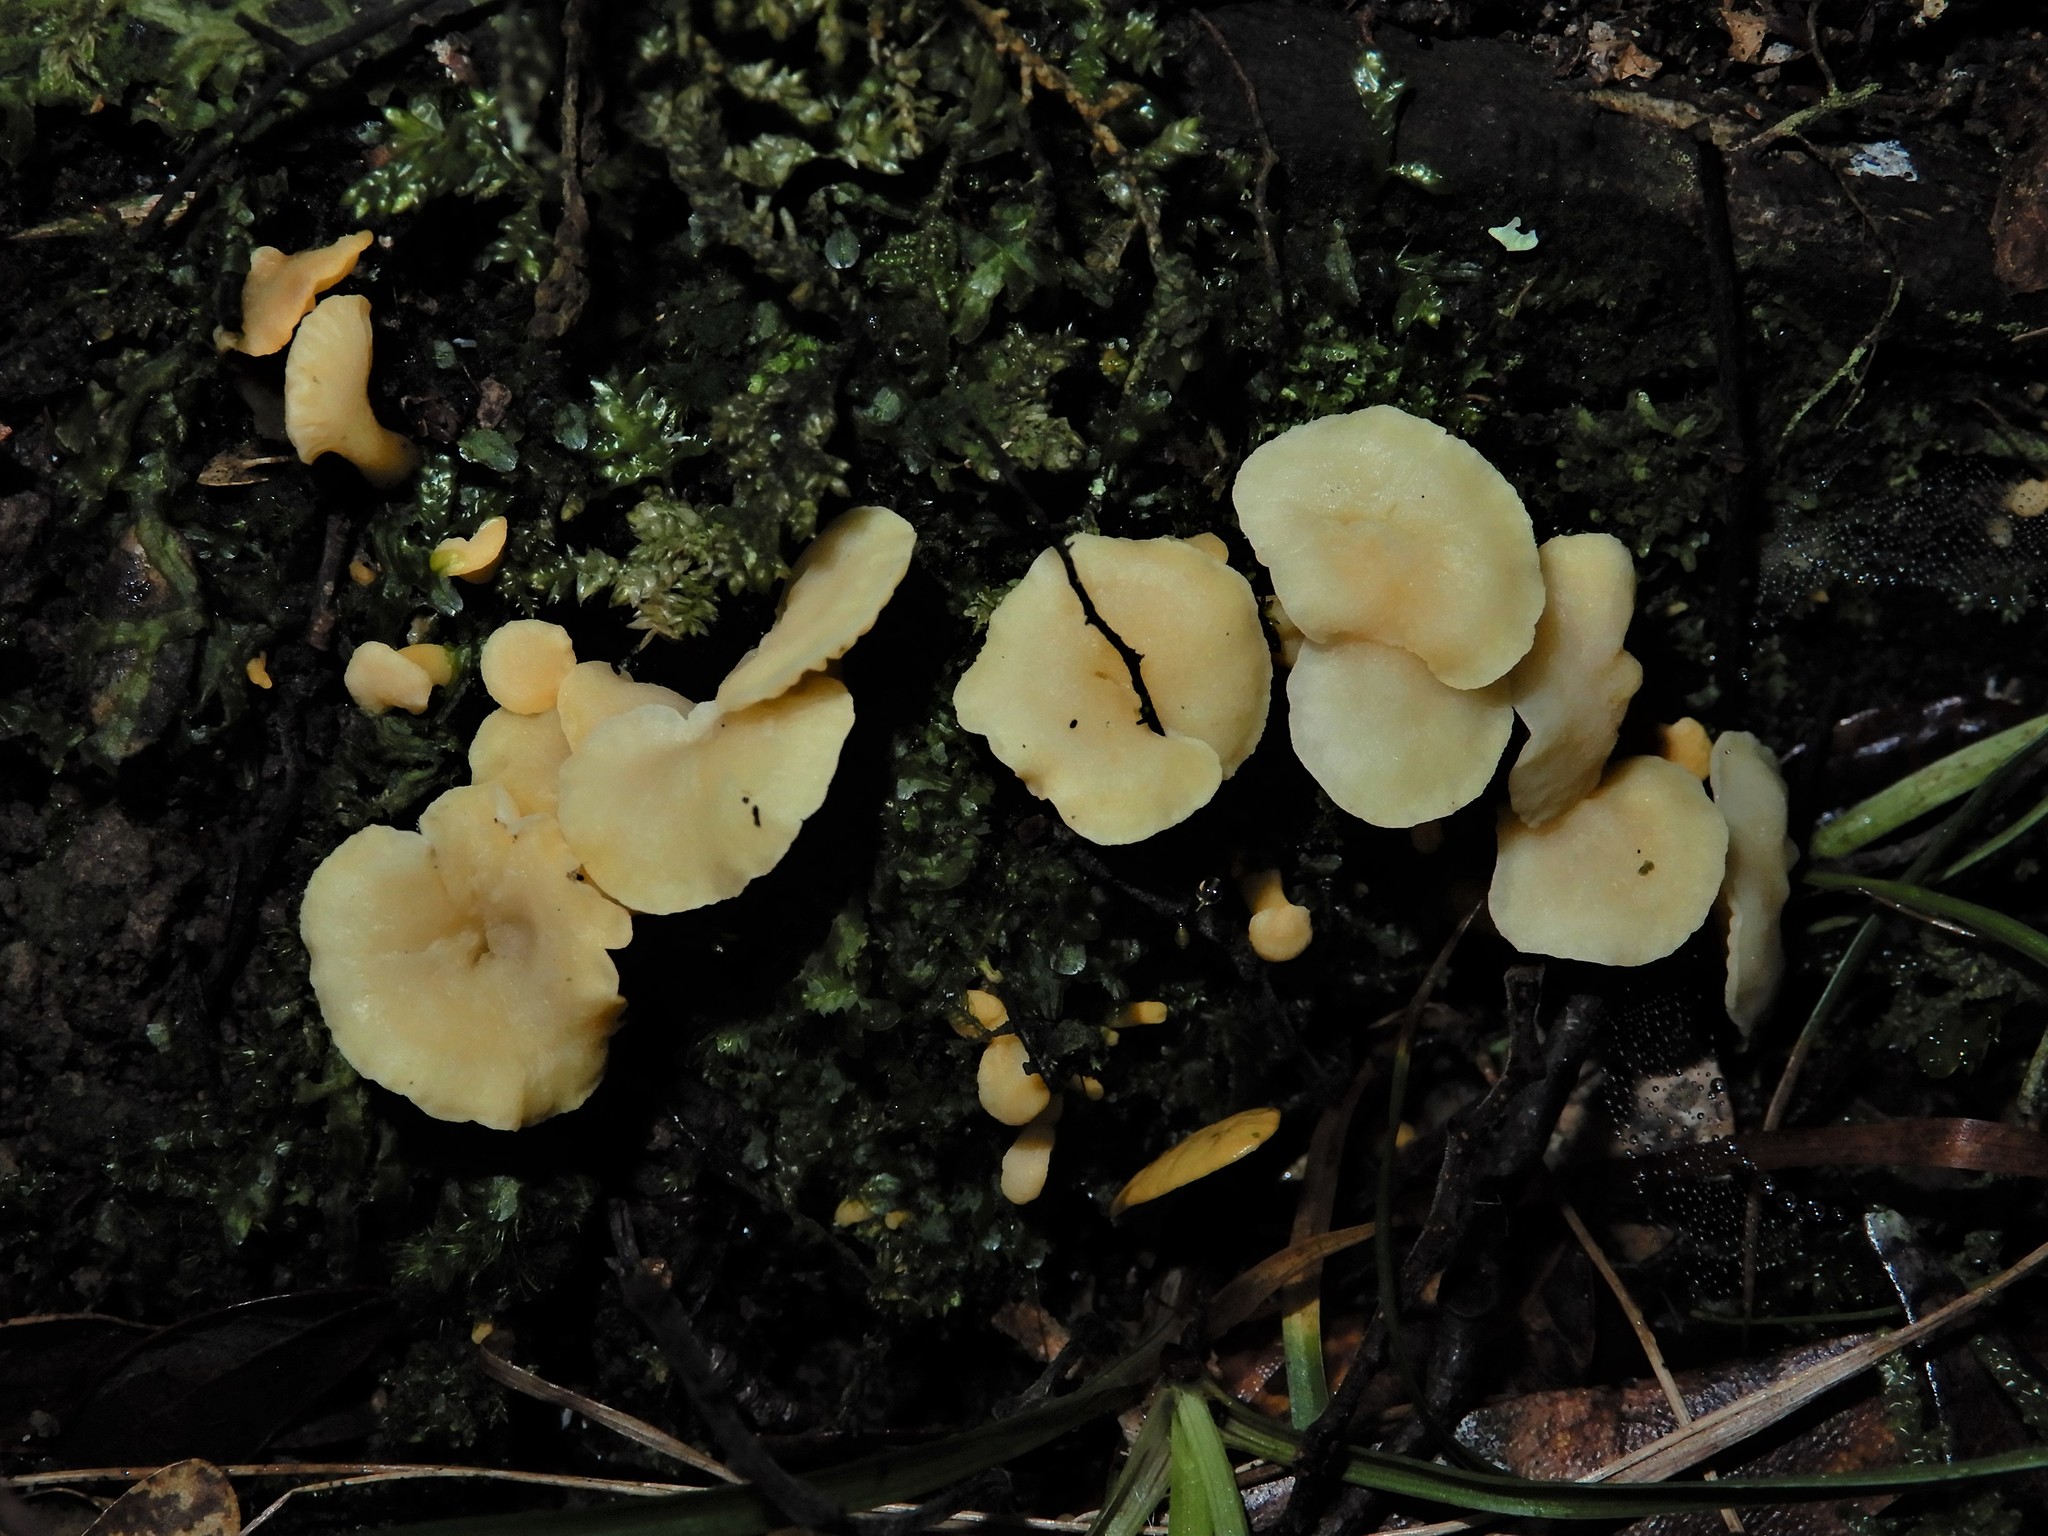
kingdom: Fungi
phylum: Basidiomycota
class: Agaricomycetes
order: Cantharellales
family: Hydnaceae
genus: Cantharellus
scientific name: Cantharellus wellingtonensis
